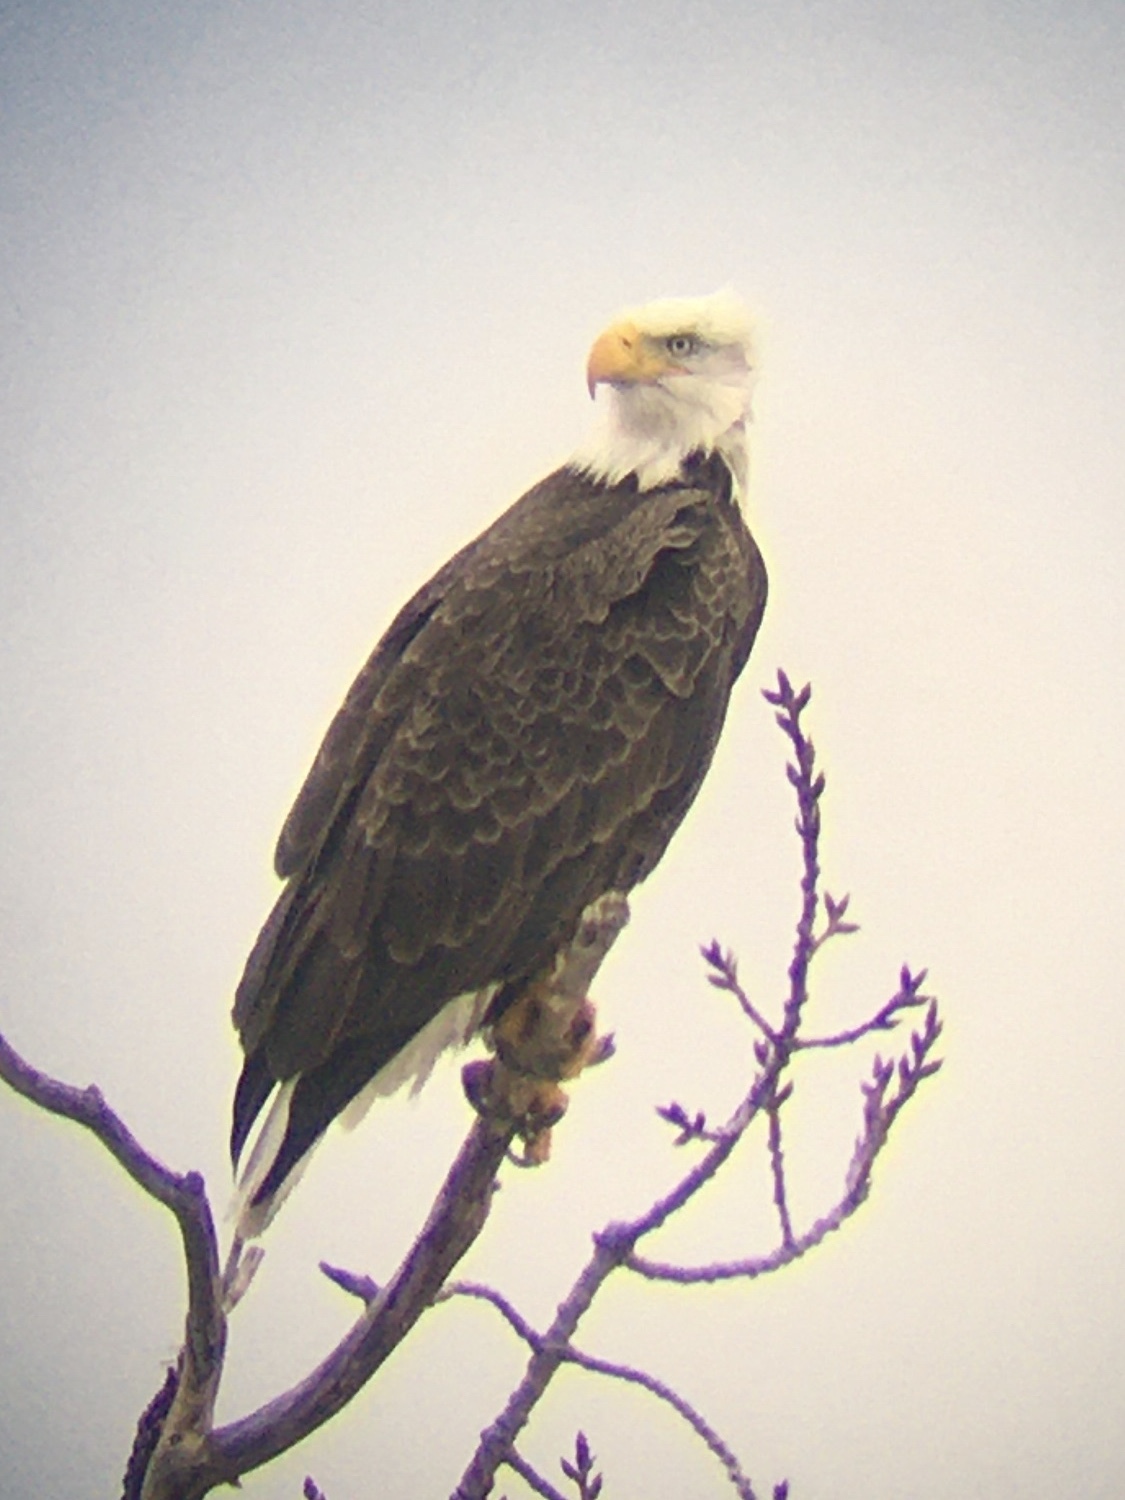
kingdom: Animalia
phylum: Chordata
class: Aves
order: Accipitriformes
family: Accipitridae
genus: Haliaeetus
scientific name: Haliaeetus leucocephalus
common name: Bald eagle
